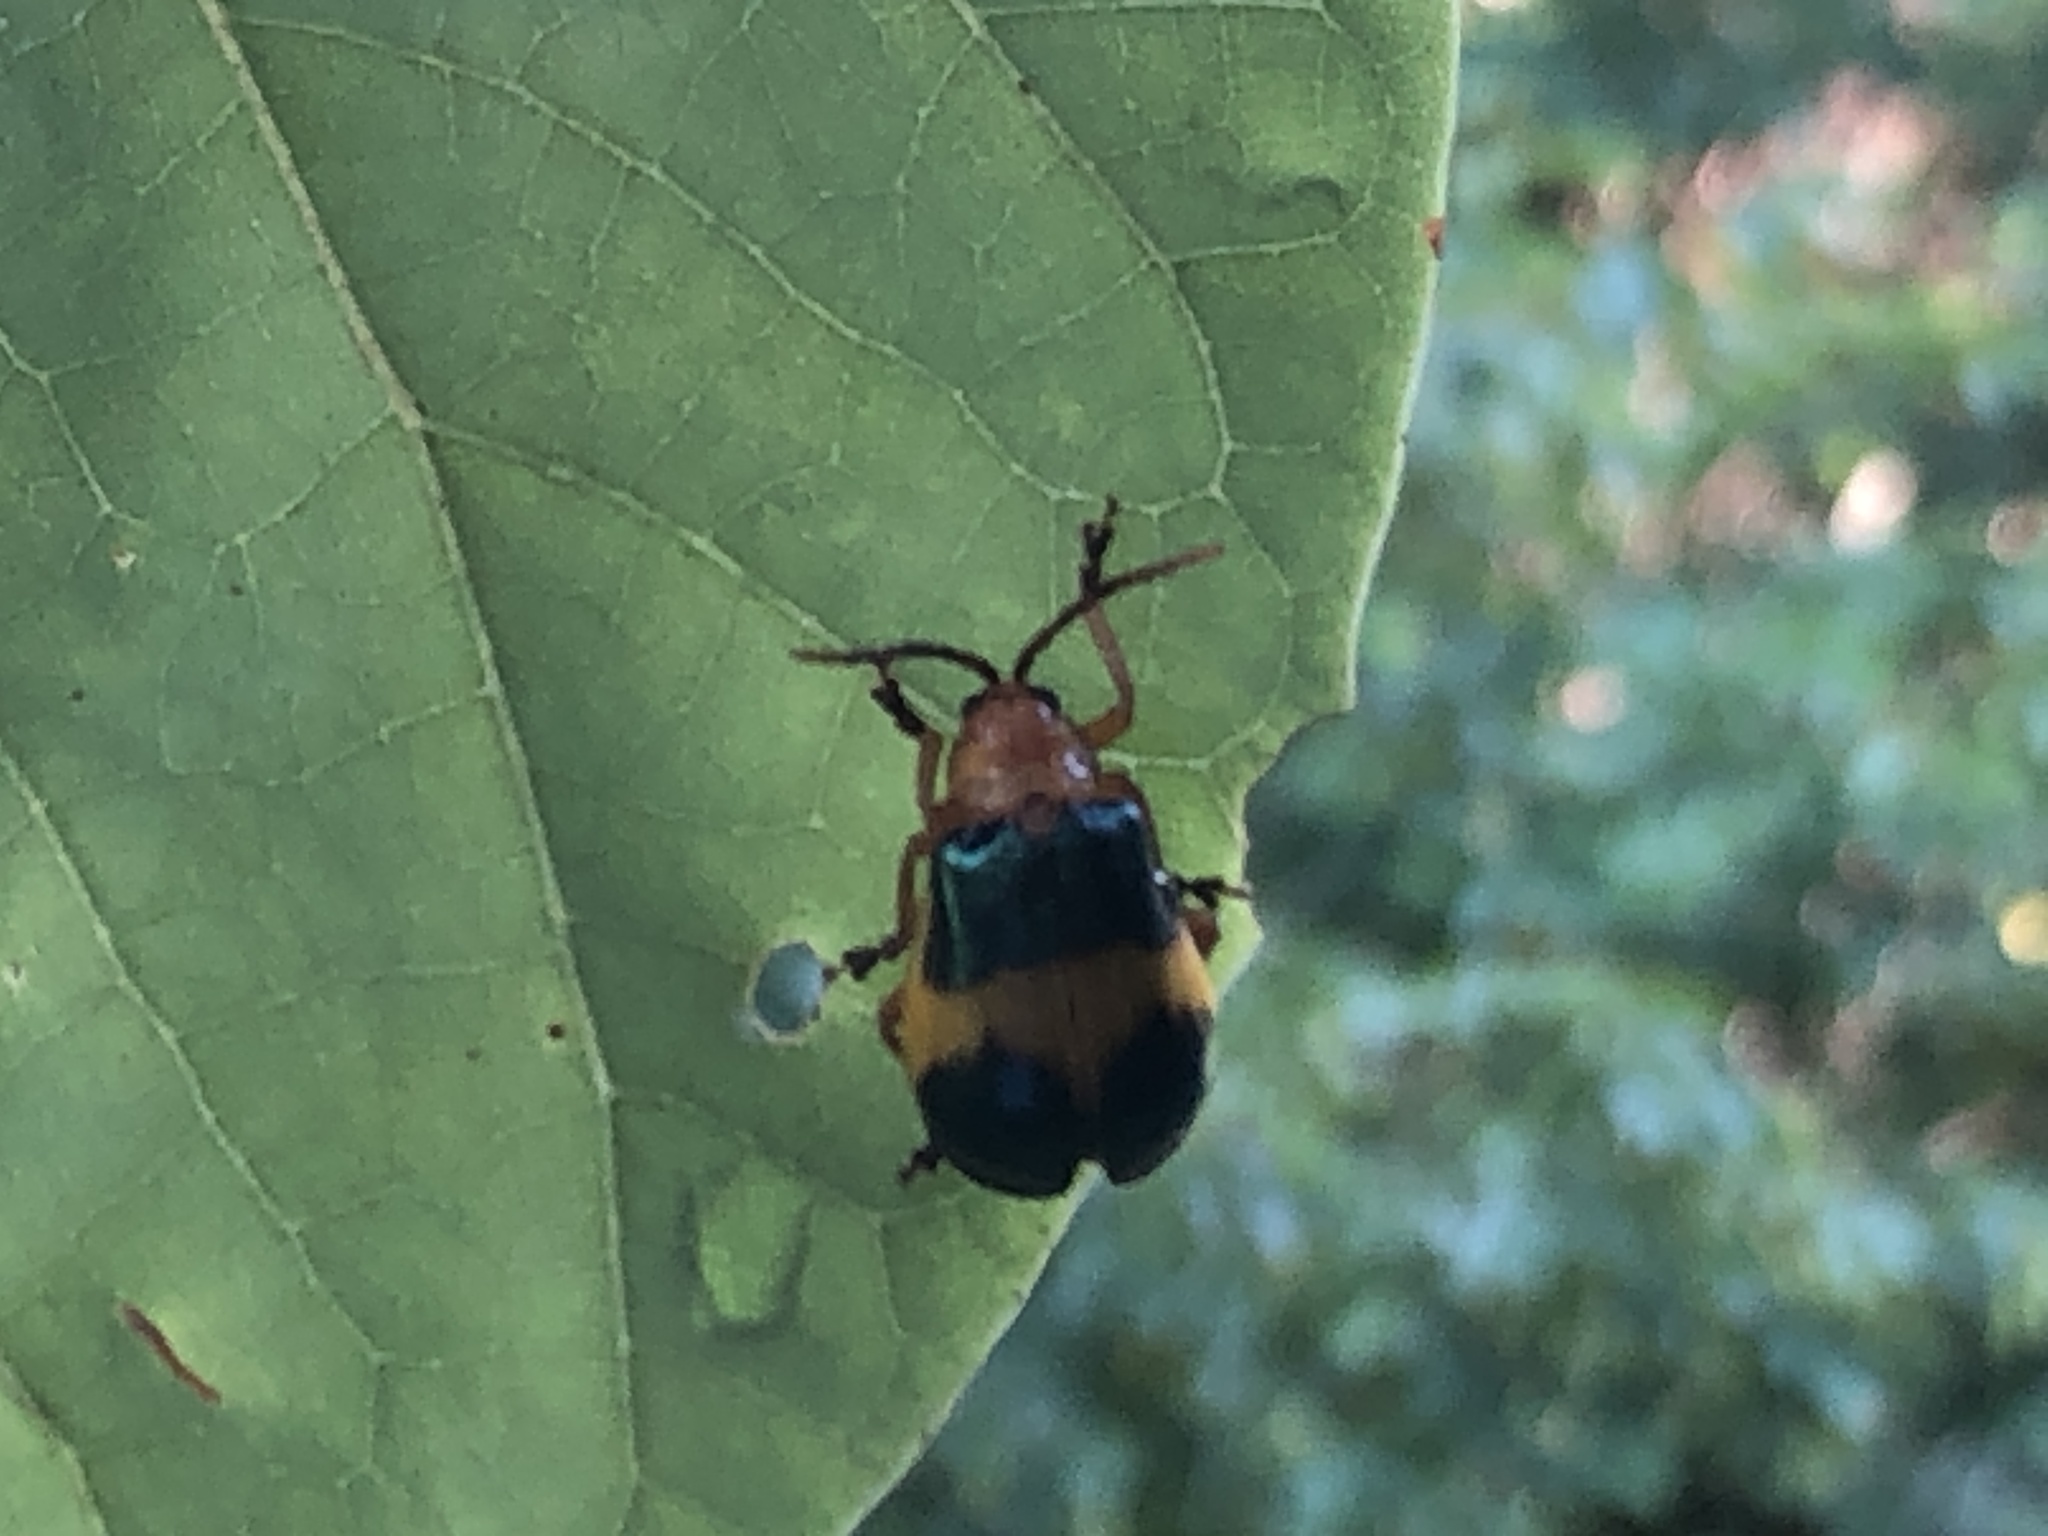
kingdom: Animalia
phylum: Arthropoda
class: Insecta
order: Coleoptera
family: Chrysomelidae
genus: Monocesta
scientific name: Monocesta coryli
